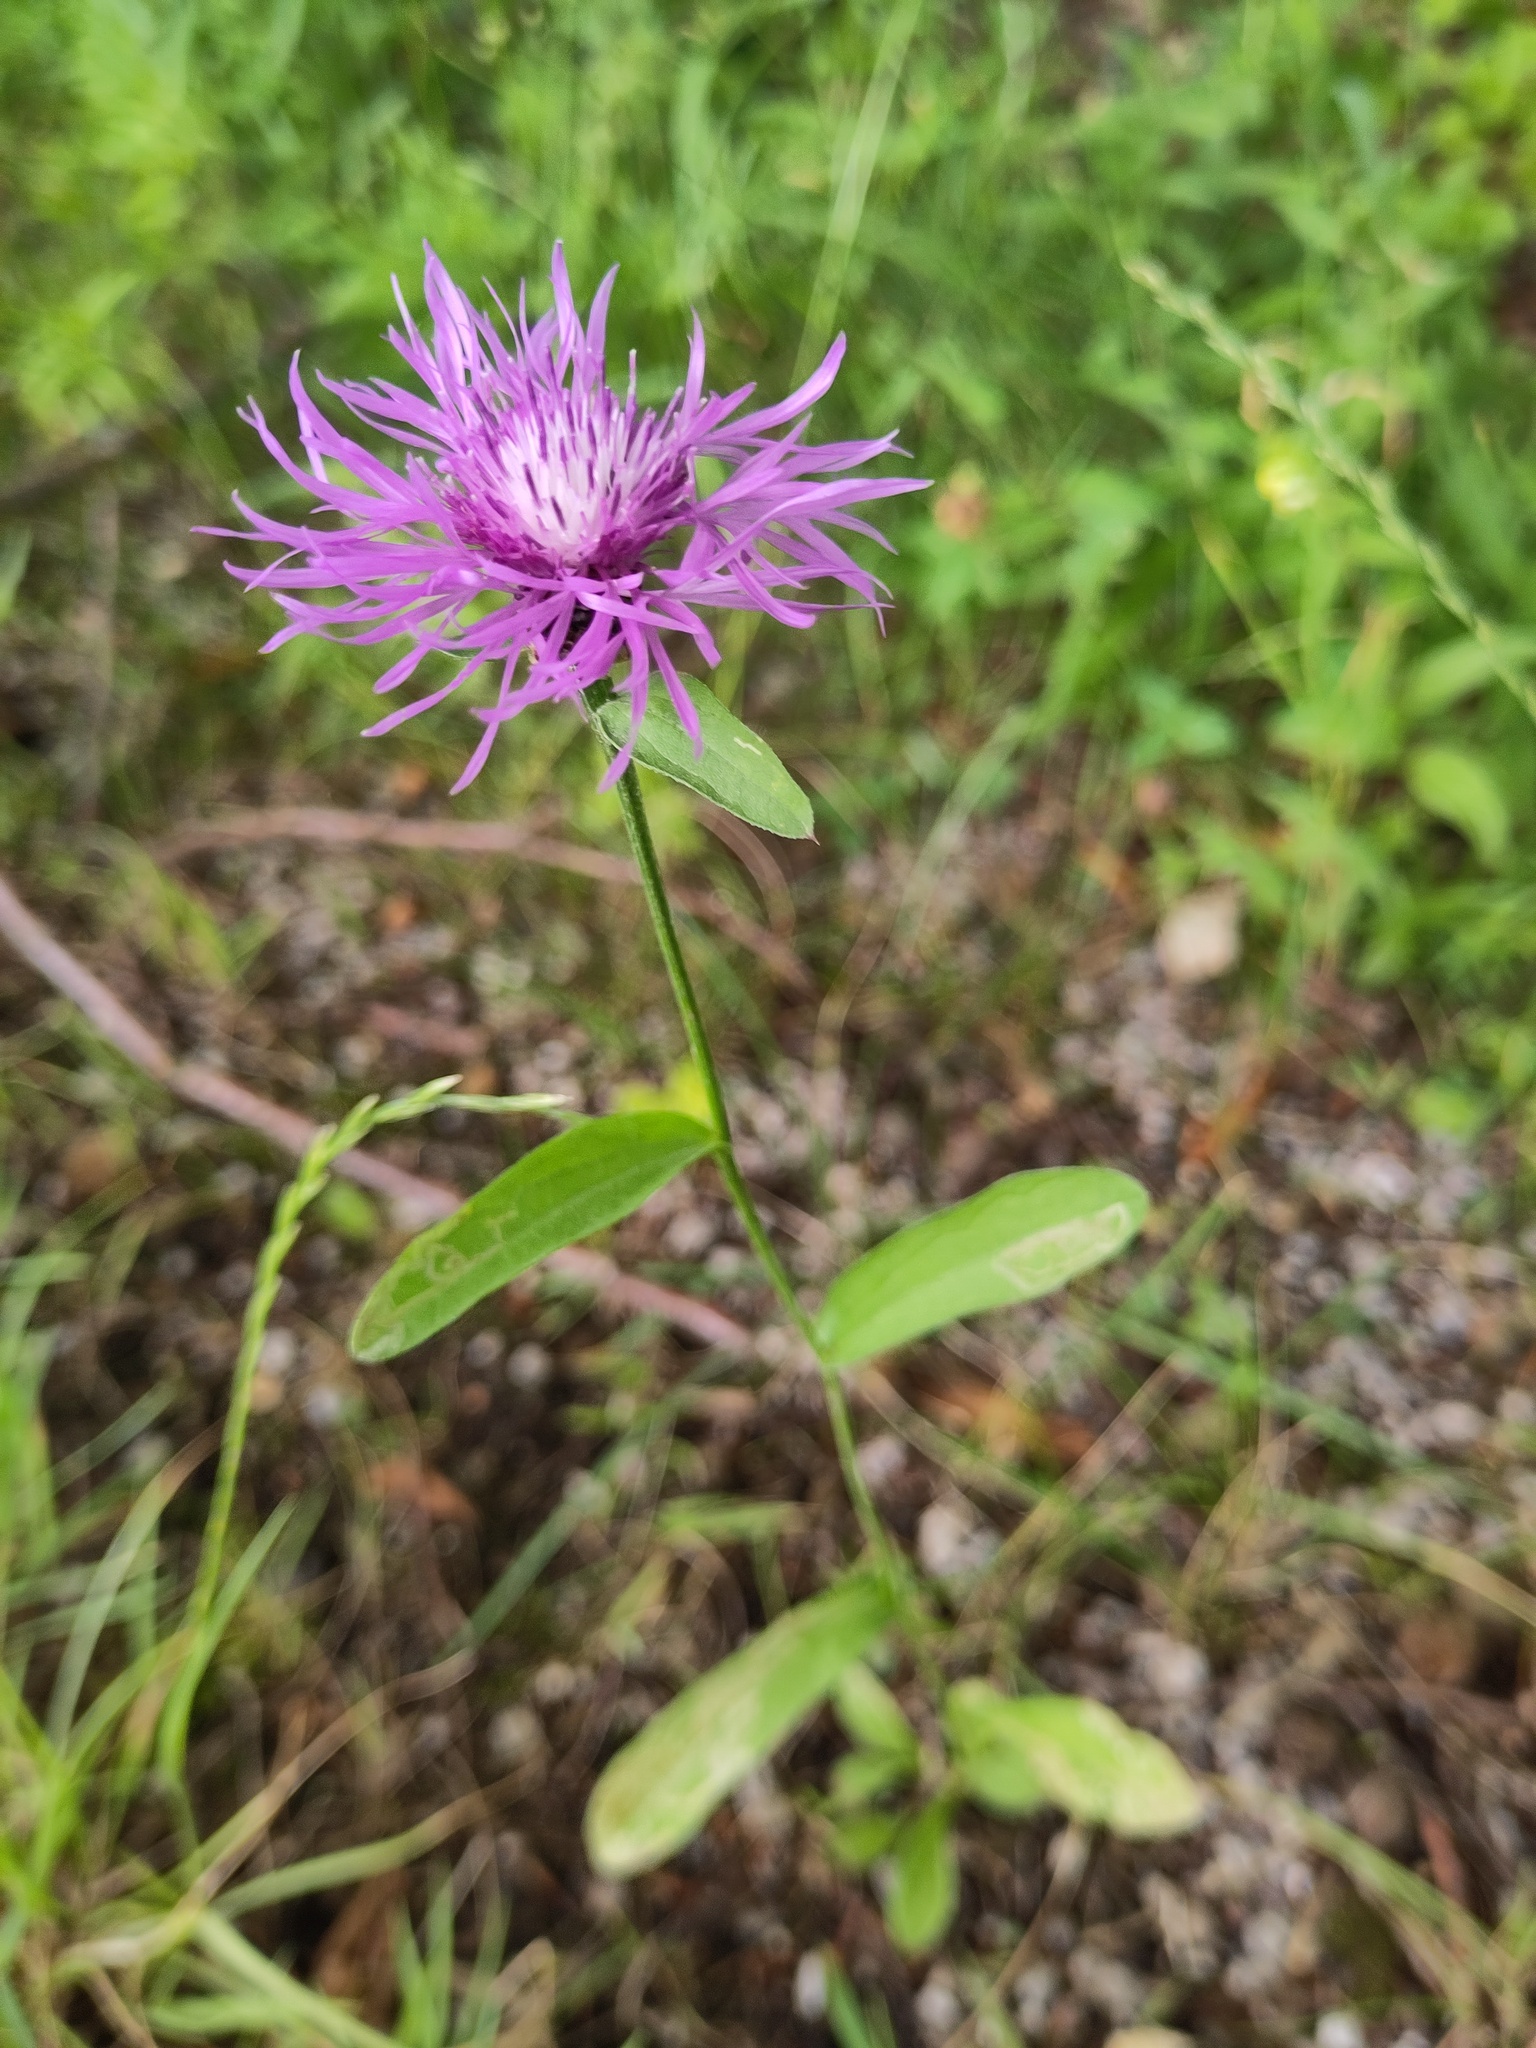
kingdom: Plantae
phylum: Tracheophyta
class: Magnoliopsida
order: Asterales
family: Asteraceae
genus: Centaurea
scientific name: Centaurea jacea
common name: Brown knapweed
